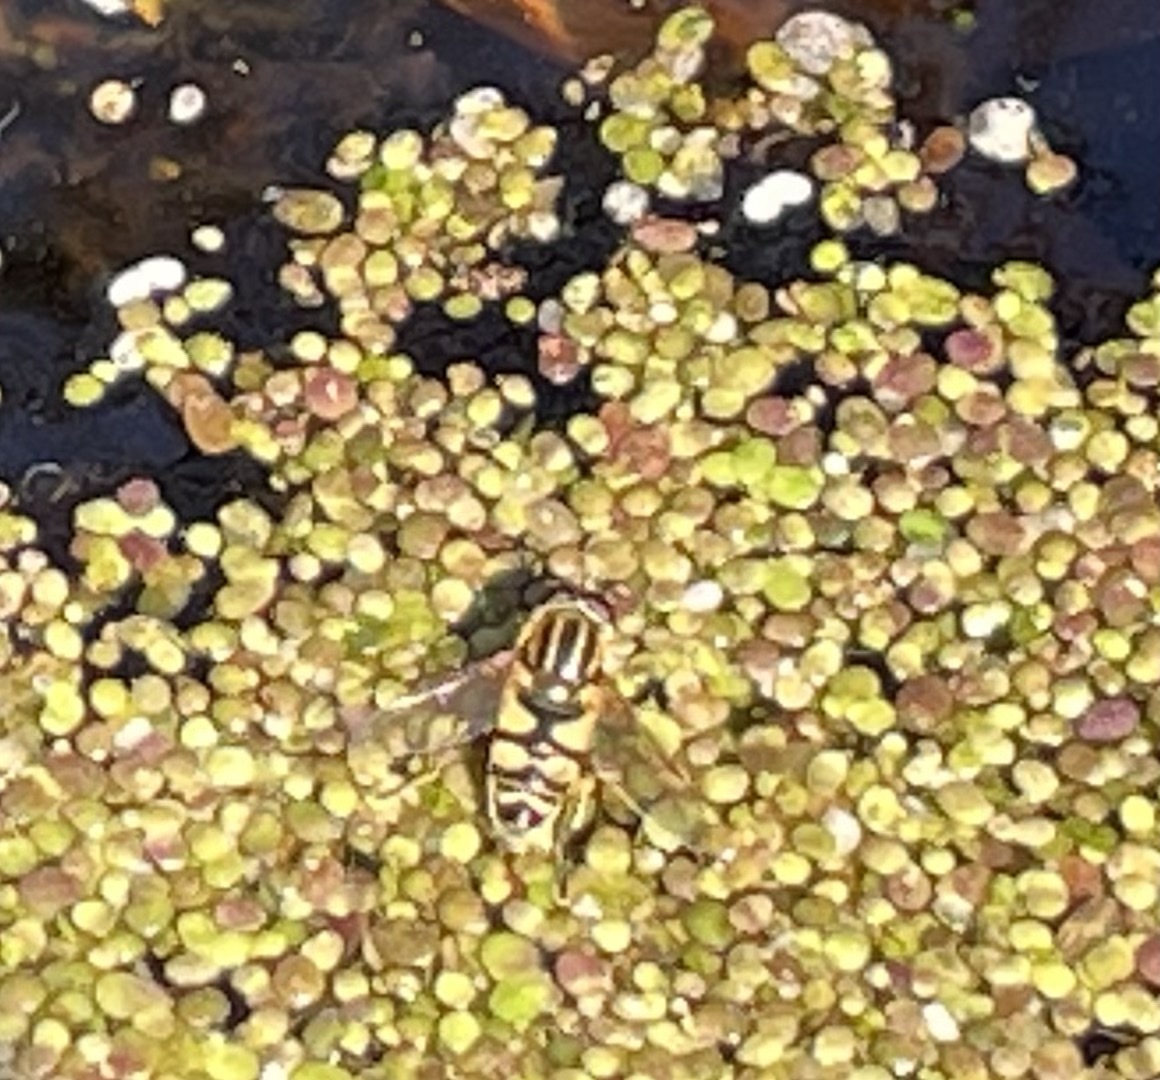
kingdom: Animalia
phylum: Arthropoda
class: Insecta
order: Diptera
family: Syrphidae
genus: Helophilus
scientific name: Helophilus fasciatus
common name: Narrow-headed marsh fly
